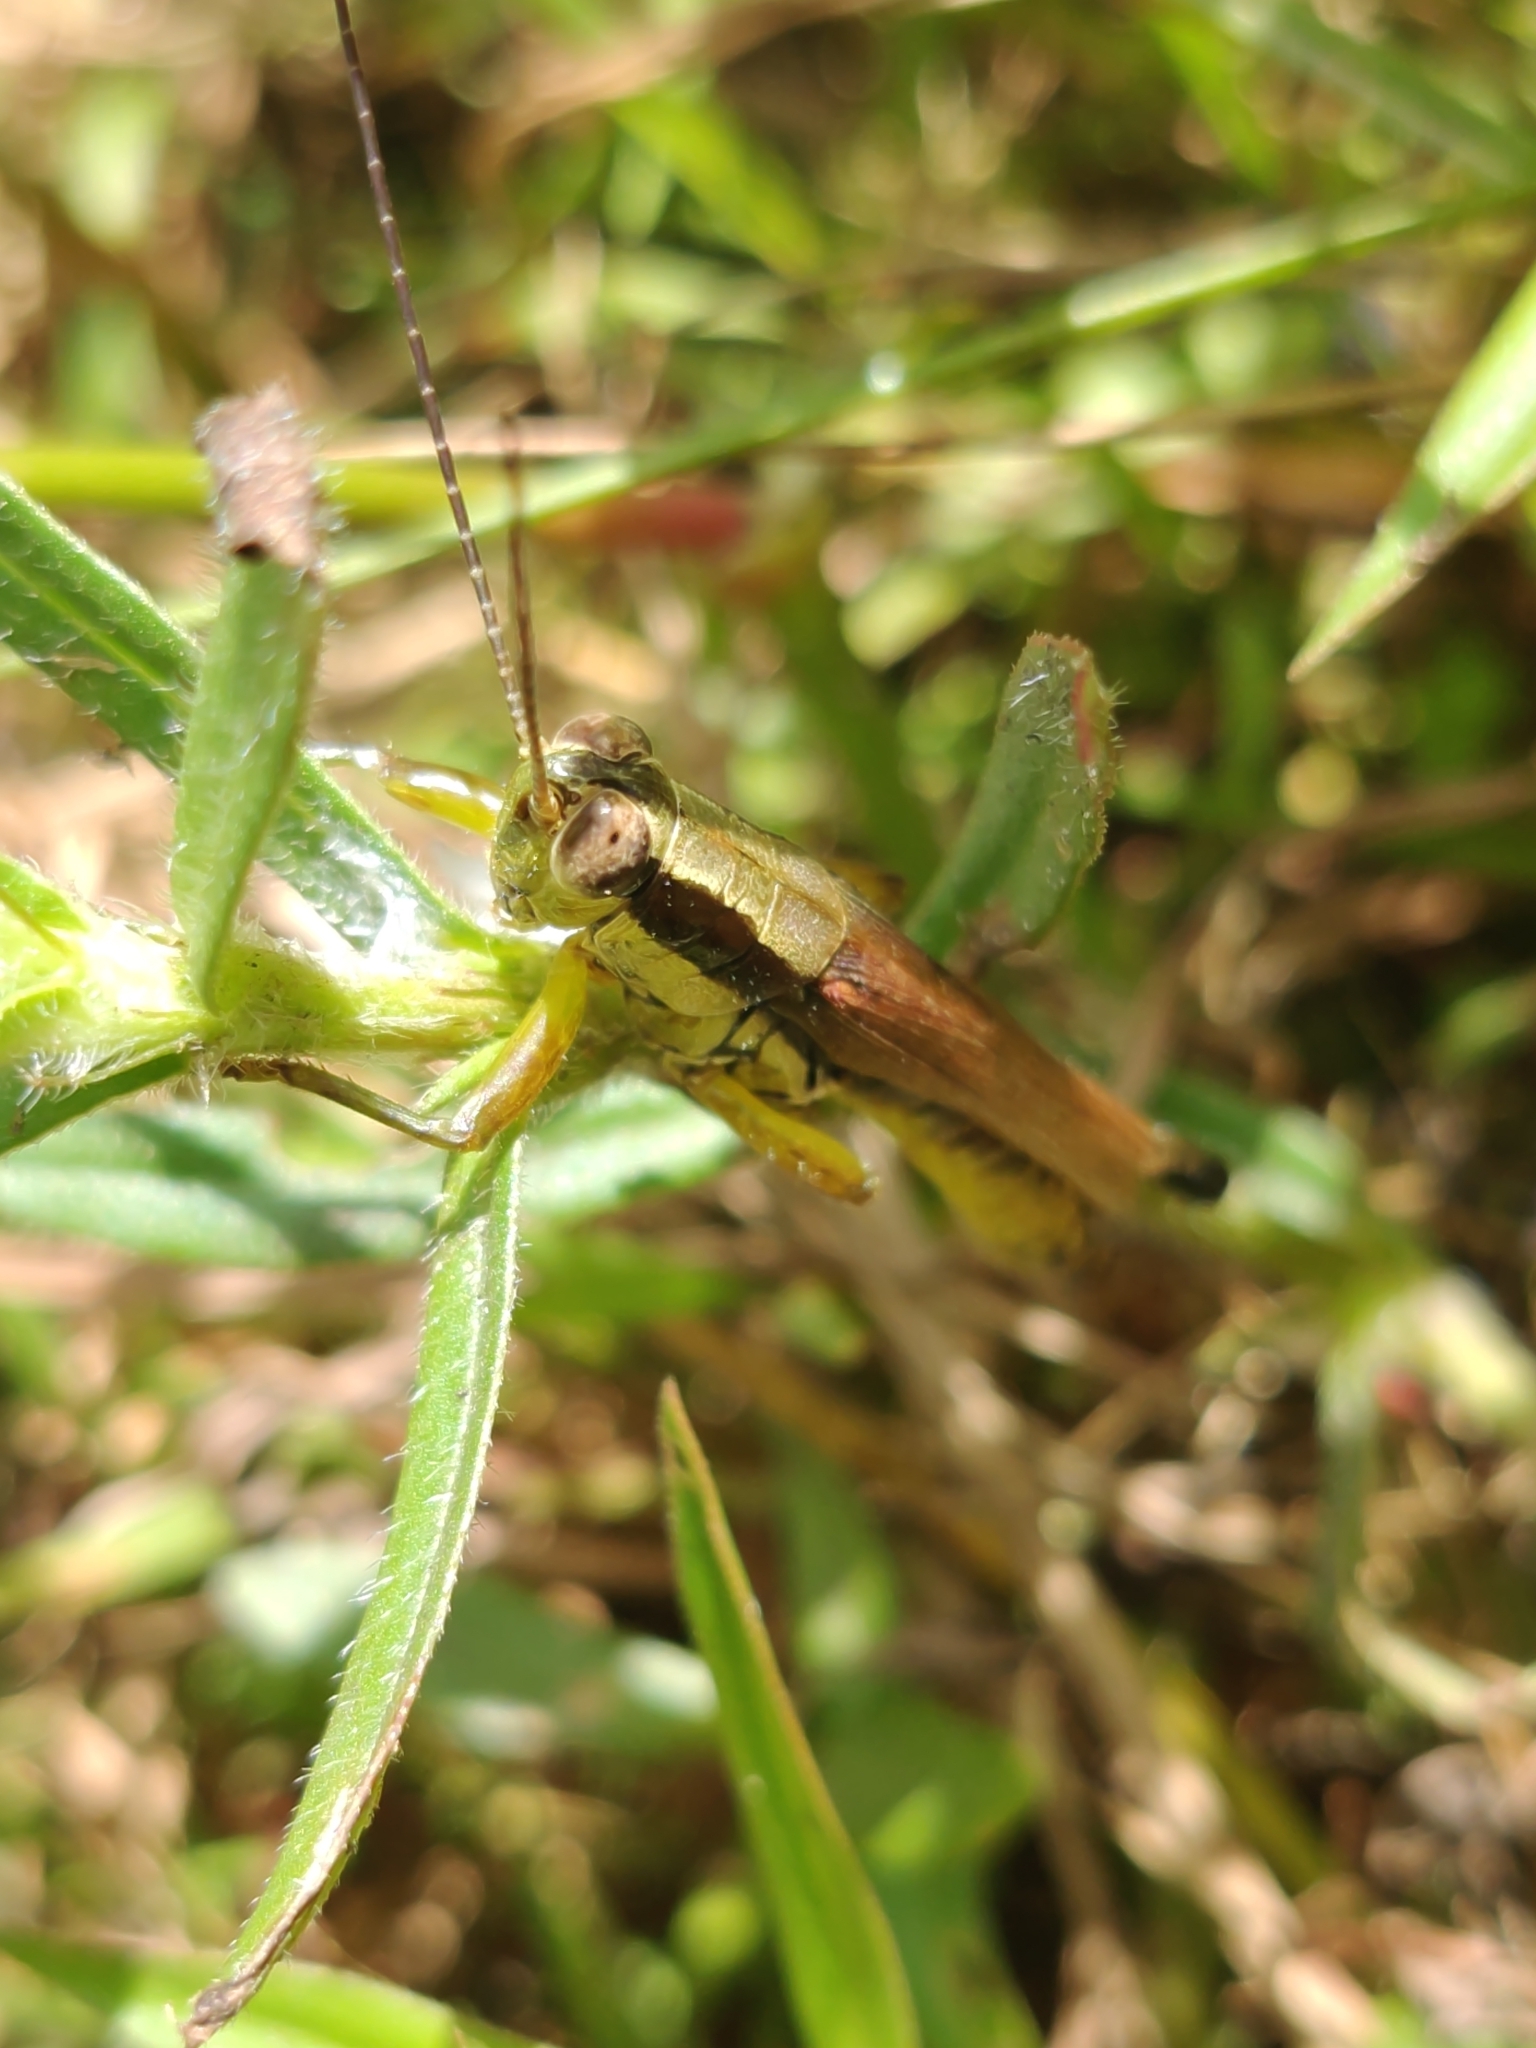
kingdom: Animalia
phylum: Arthropoda
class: Insecta
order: Orthoptera
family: Acrididae
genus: Paroxya
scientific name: Paroxya clavuligera
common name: Olive-green swamp grasshopper
